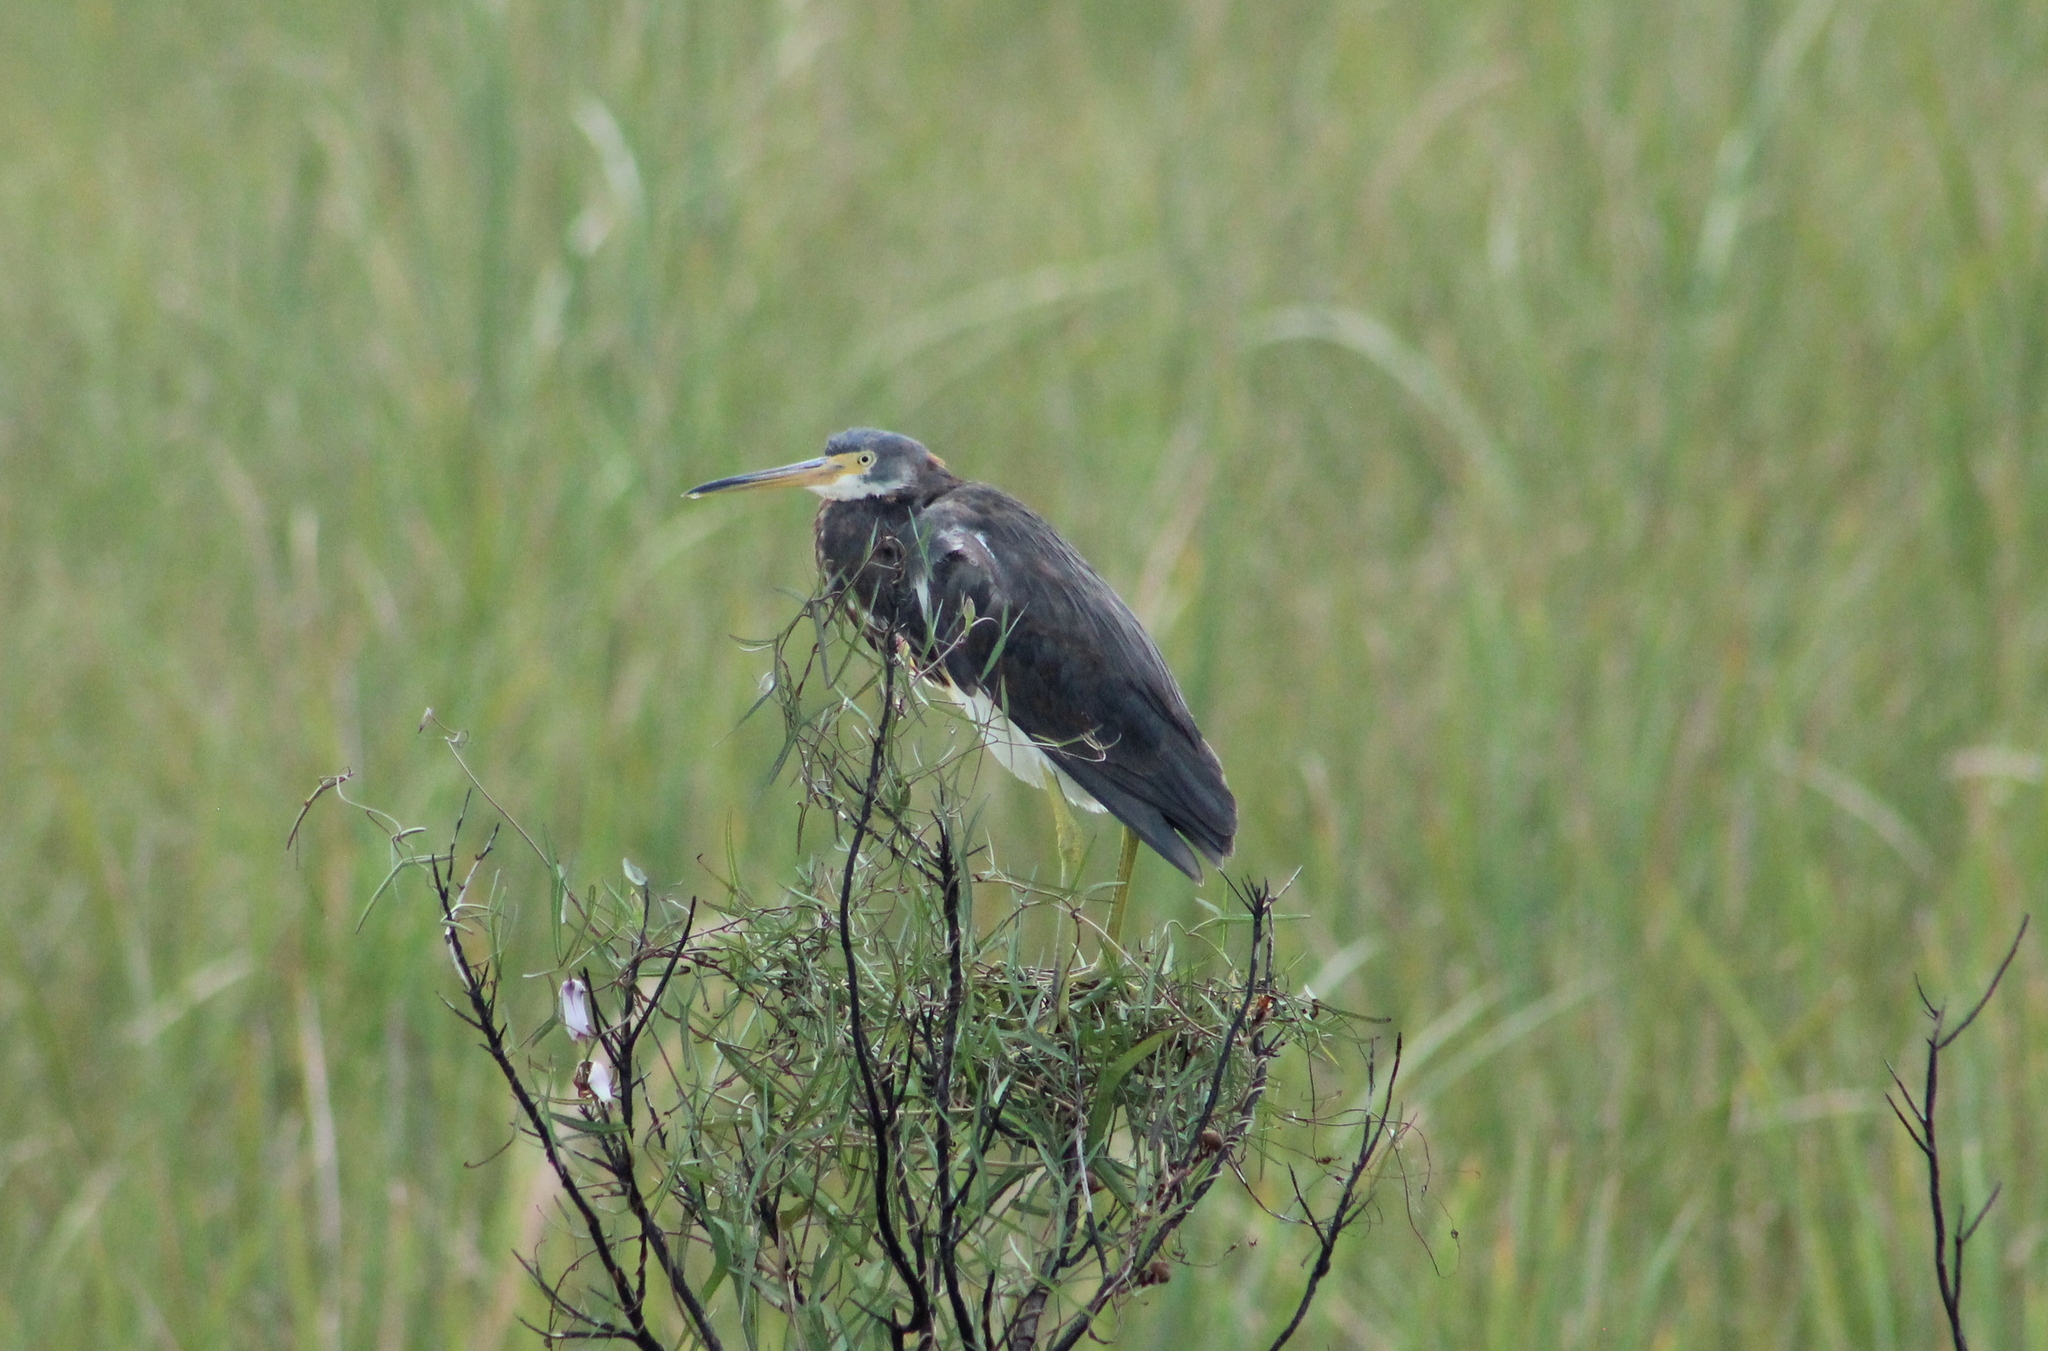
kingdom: Animalia
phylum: Chordata
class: Aves
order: Pelecaniformes
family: Ardeidae
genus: Egretta
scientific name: Egretta tricolor
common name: Tricolored heron
